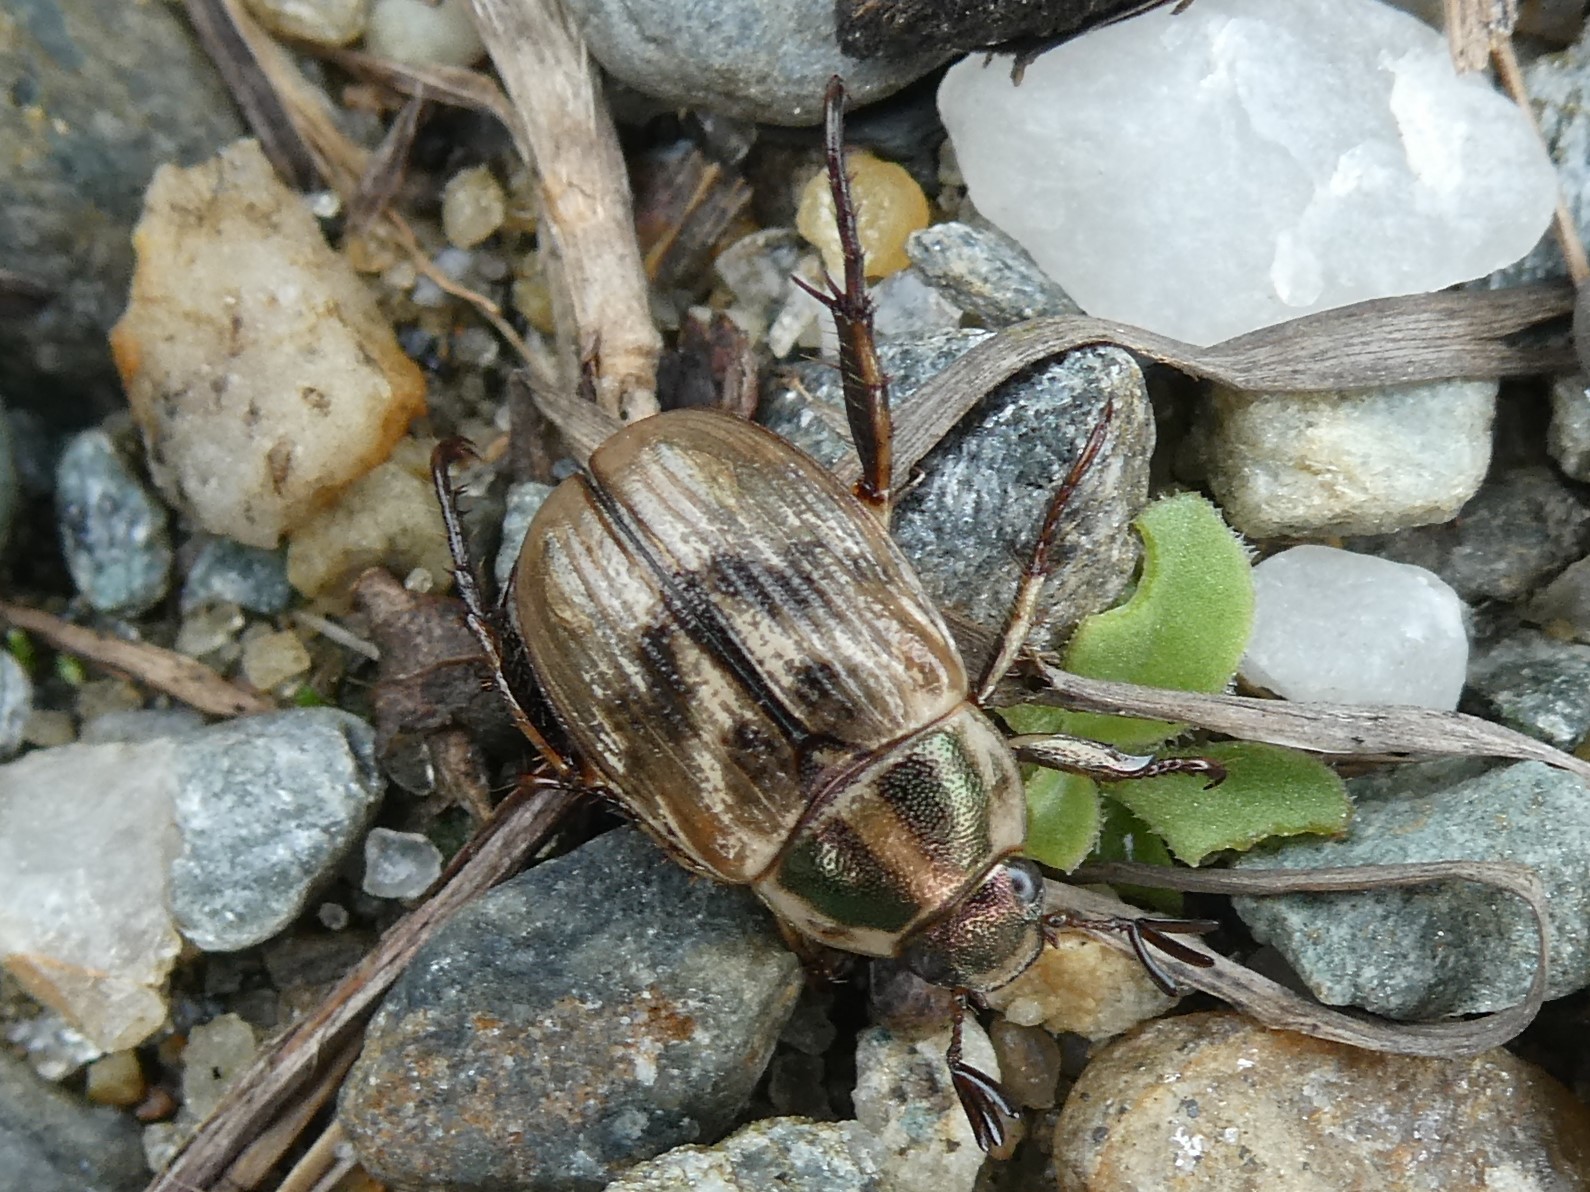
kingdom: Animalia
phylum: Arthropoda
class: Insecta
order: Coleoptera
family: Scarabaeidae
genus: Exomala
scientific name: Exomala orientalis
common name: Oriental beetle
